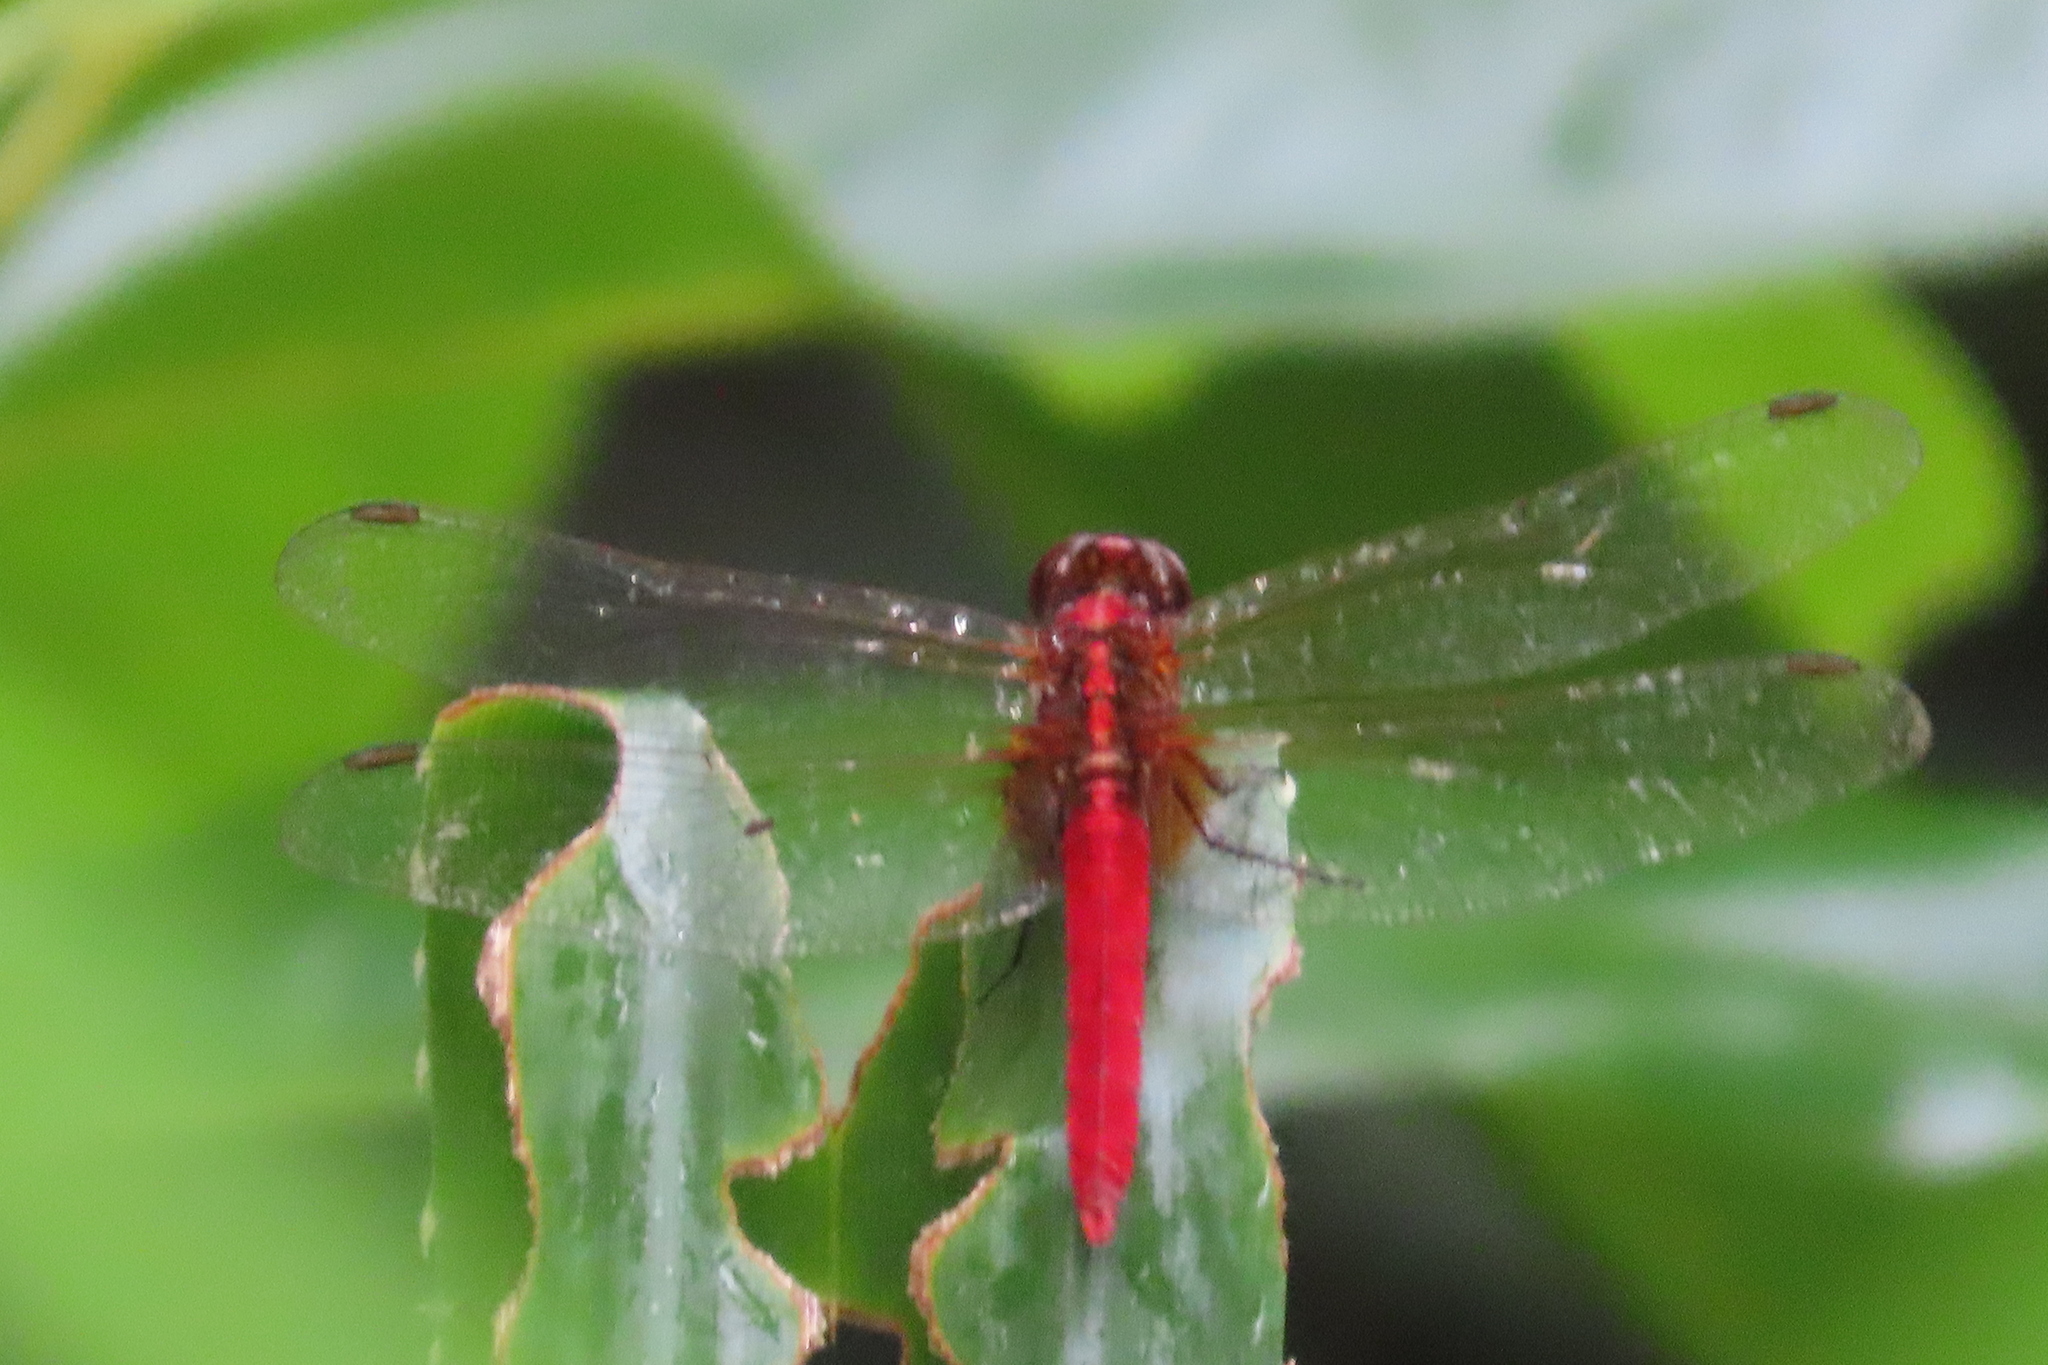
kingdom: Animalia
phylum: Arthropoda
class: Insecta
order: Odonata
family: Libellulidae
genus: Rhodothemis
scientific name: Rhodothemis rufa
